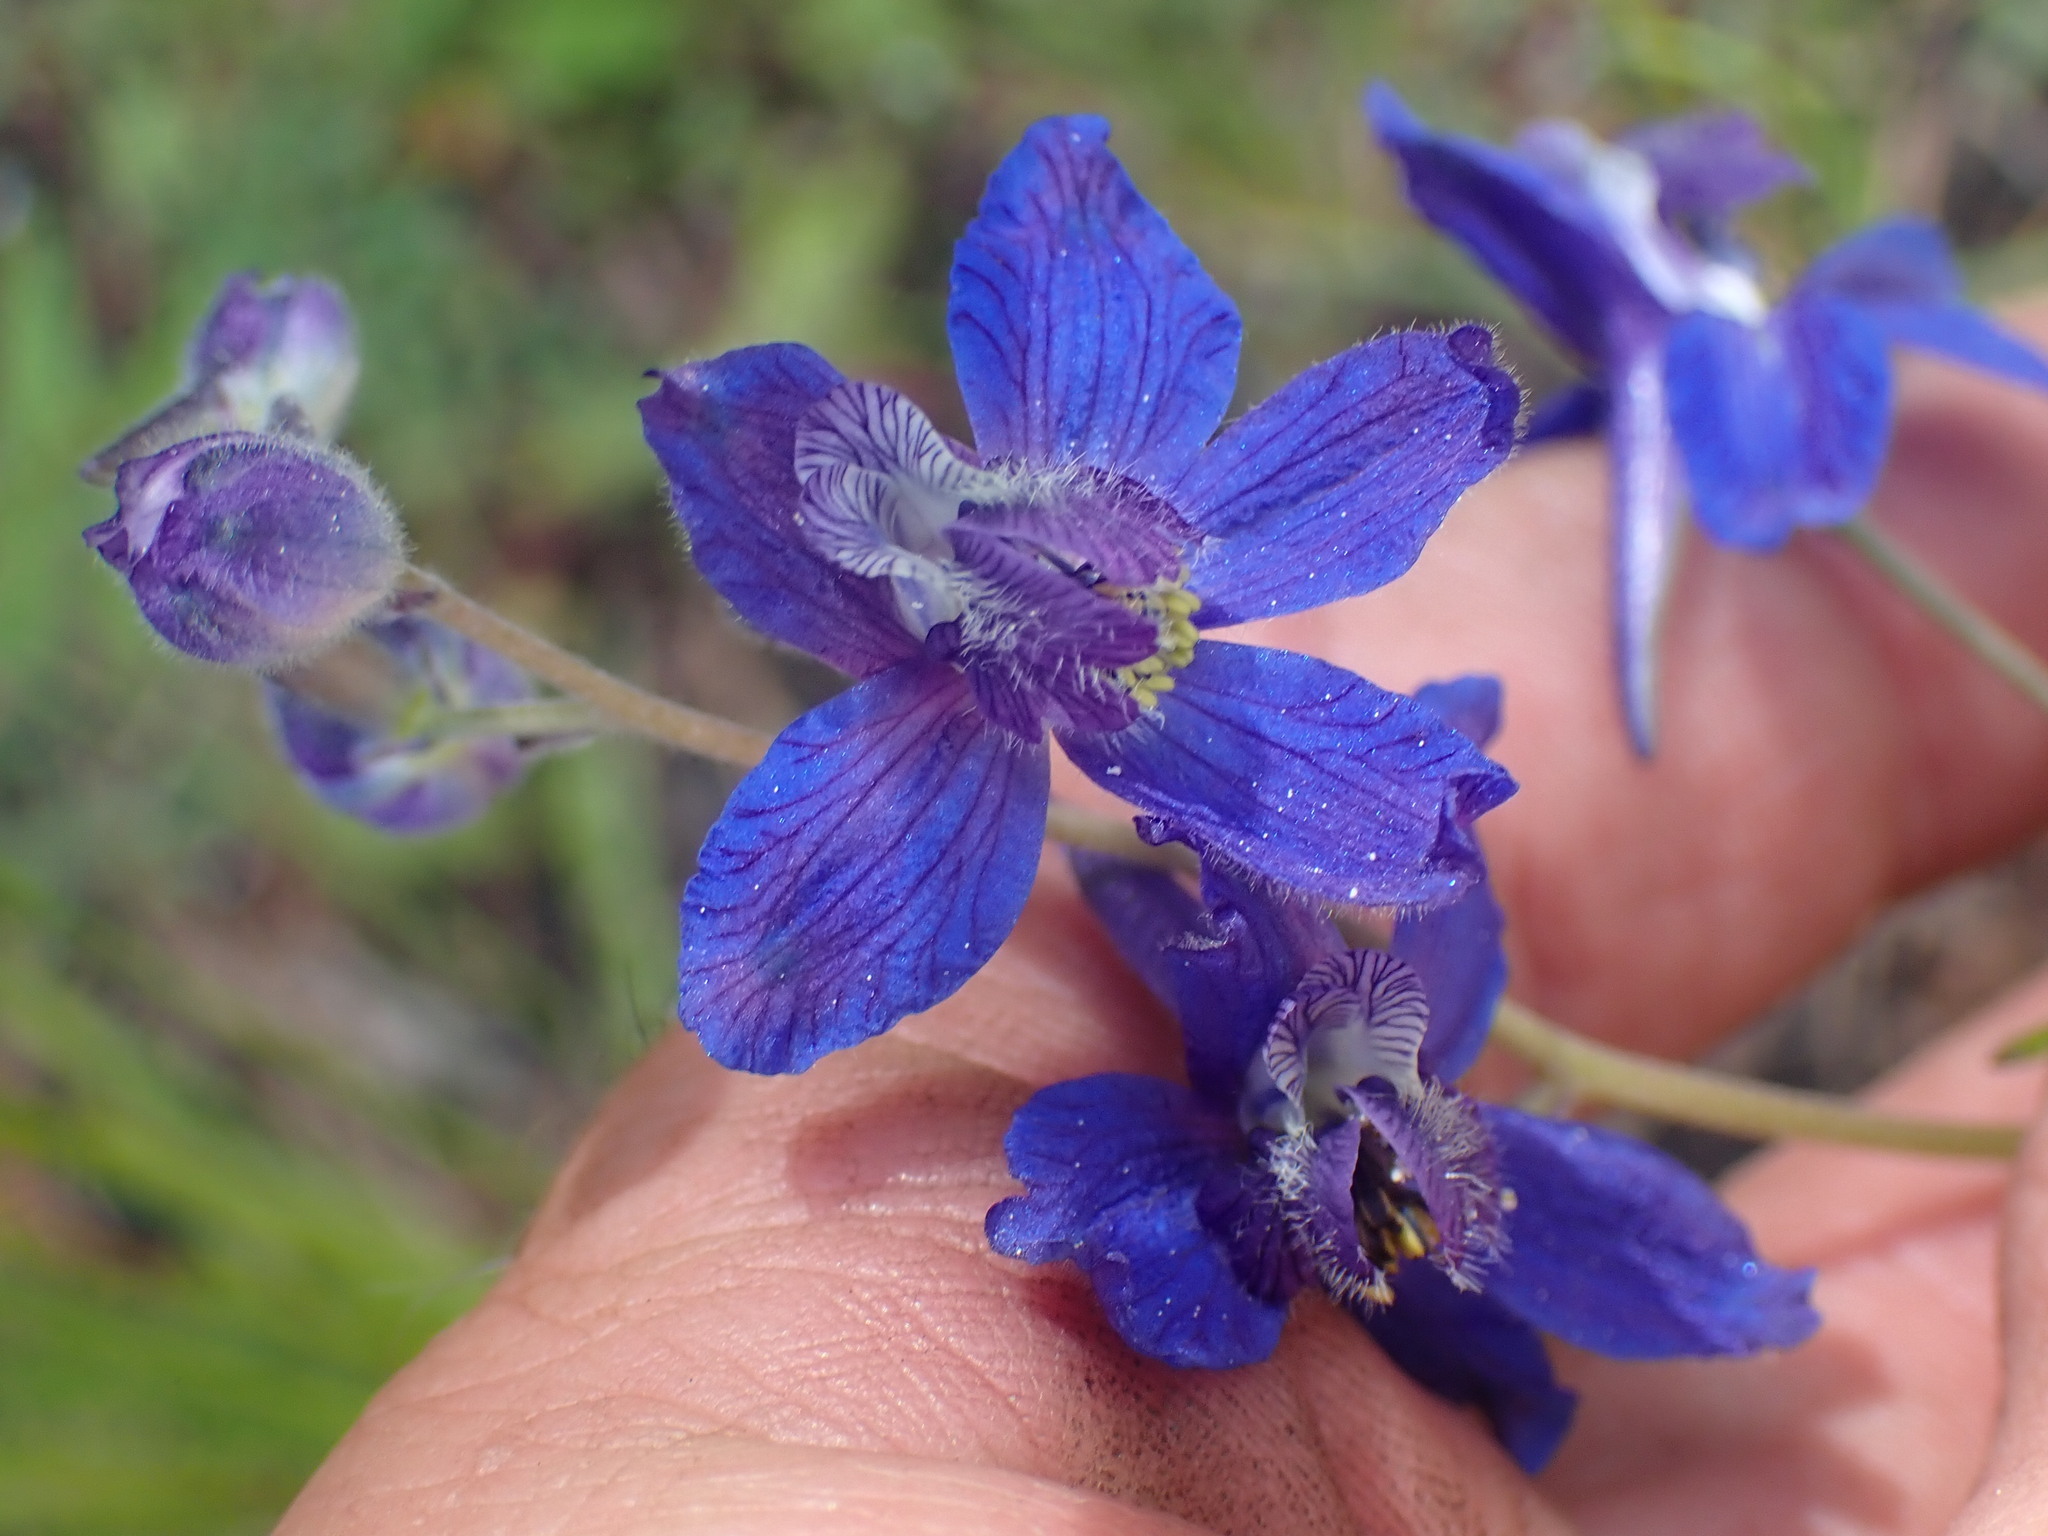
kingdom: Plantae
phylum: Tracheophyta
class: Magnoliopsida
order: Ranunculales
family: Ranunculaceae
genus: Delphinium
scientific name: Delphinium nuttallianum
